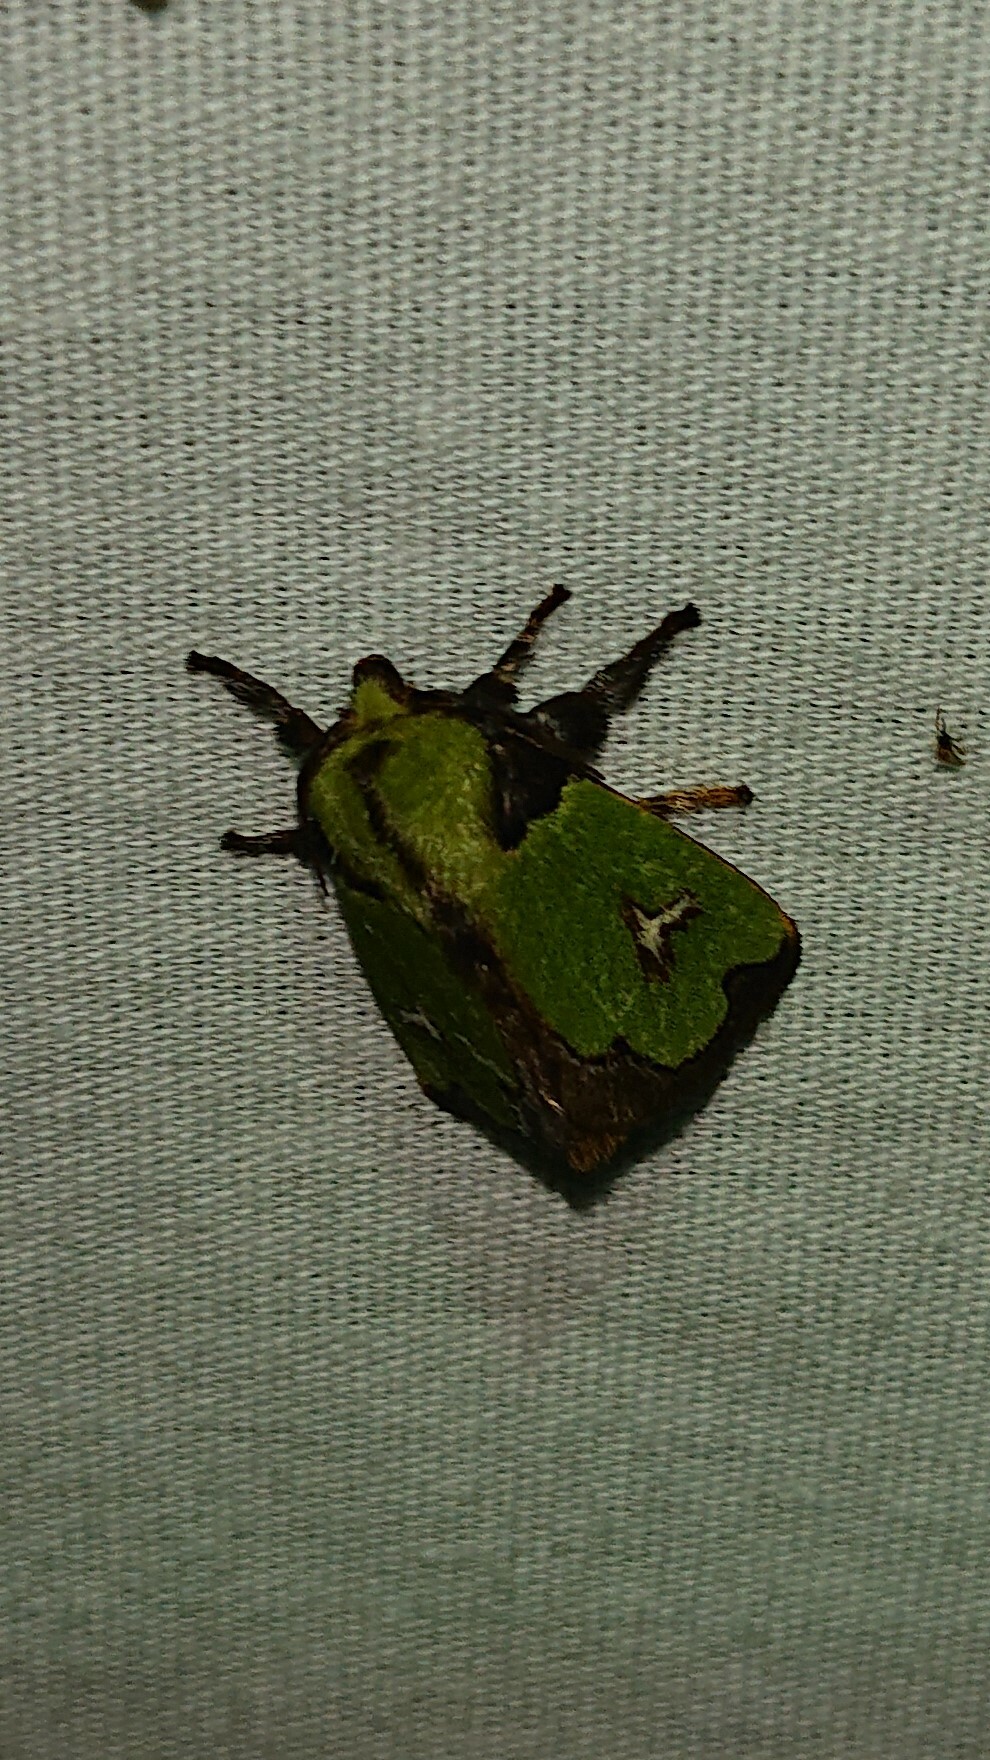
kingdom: Animalia
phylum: Arthropoda
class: Insecta
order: Lepidoptera
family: Limacodidae
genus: Parasa
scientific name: Parasa campylostagma
